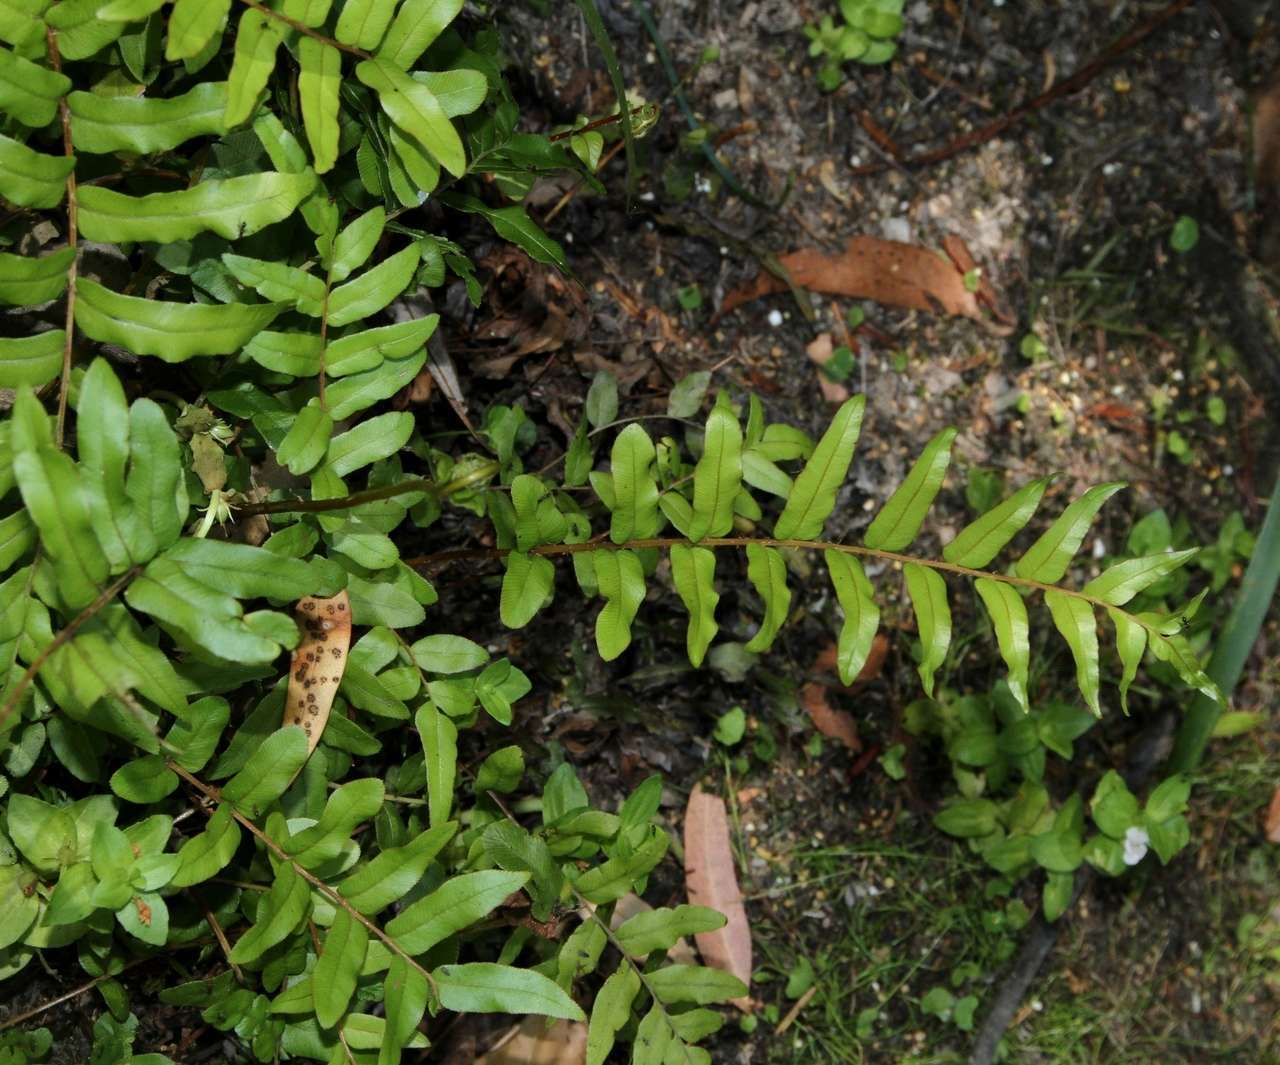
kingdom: Plantae
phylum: Tracheophyta
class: Polypodiopsida
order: Polypodiales
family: Blechnaceae
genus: Parablechnum
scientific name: Parablechnum minus
